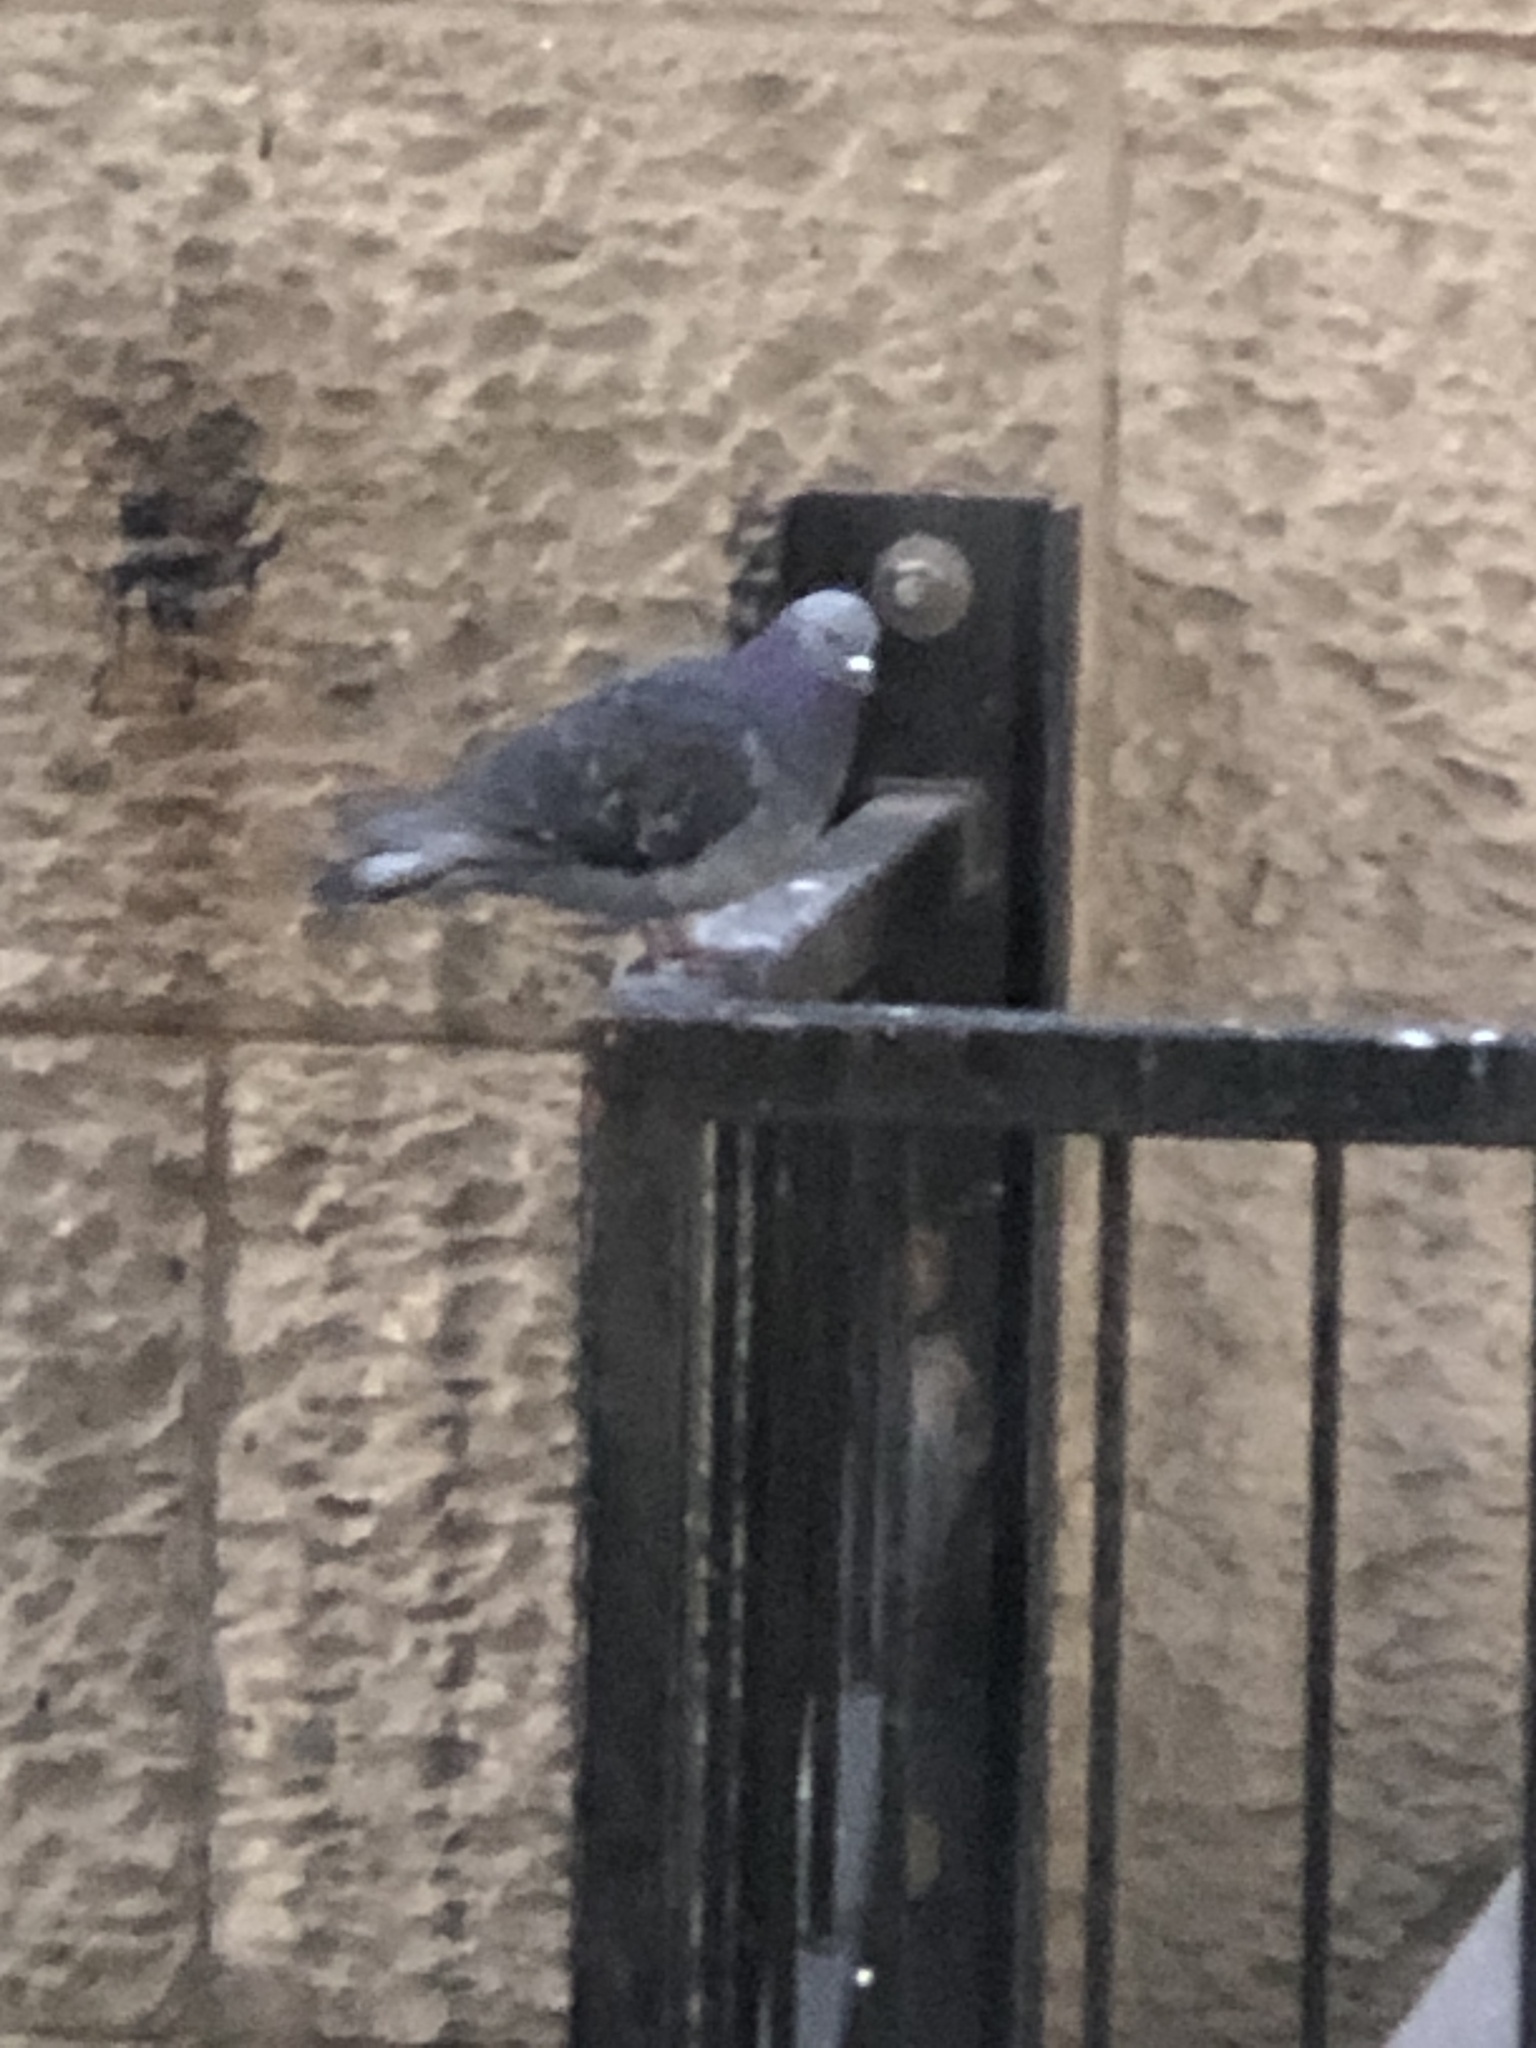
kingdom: Animalia
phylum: Chordata
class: Aves
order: Columbiformes
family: Columbidae
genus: Columba
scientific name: Columba livia
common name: Rock pigeon
